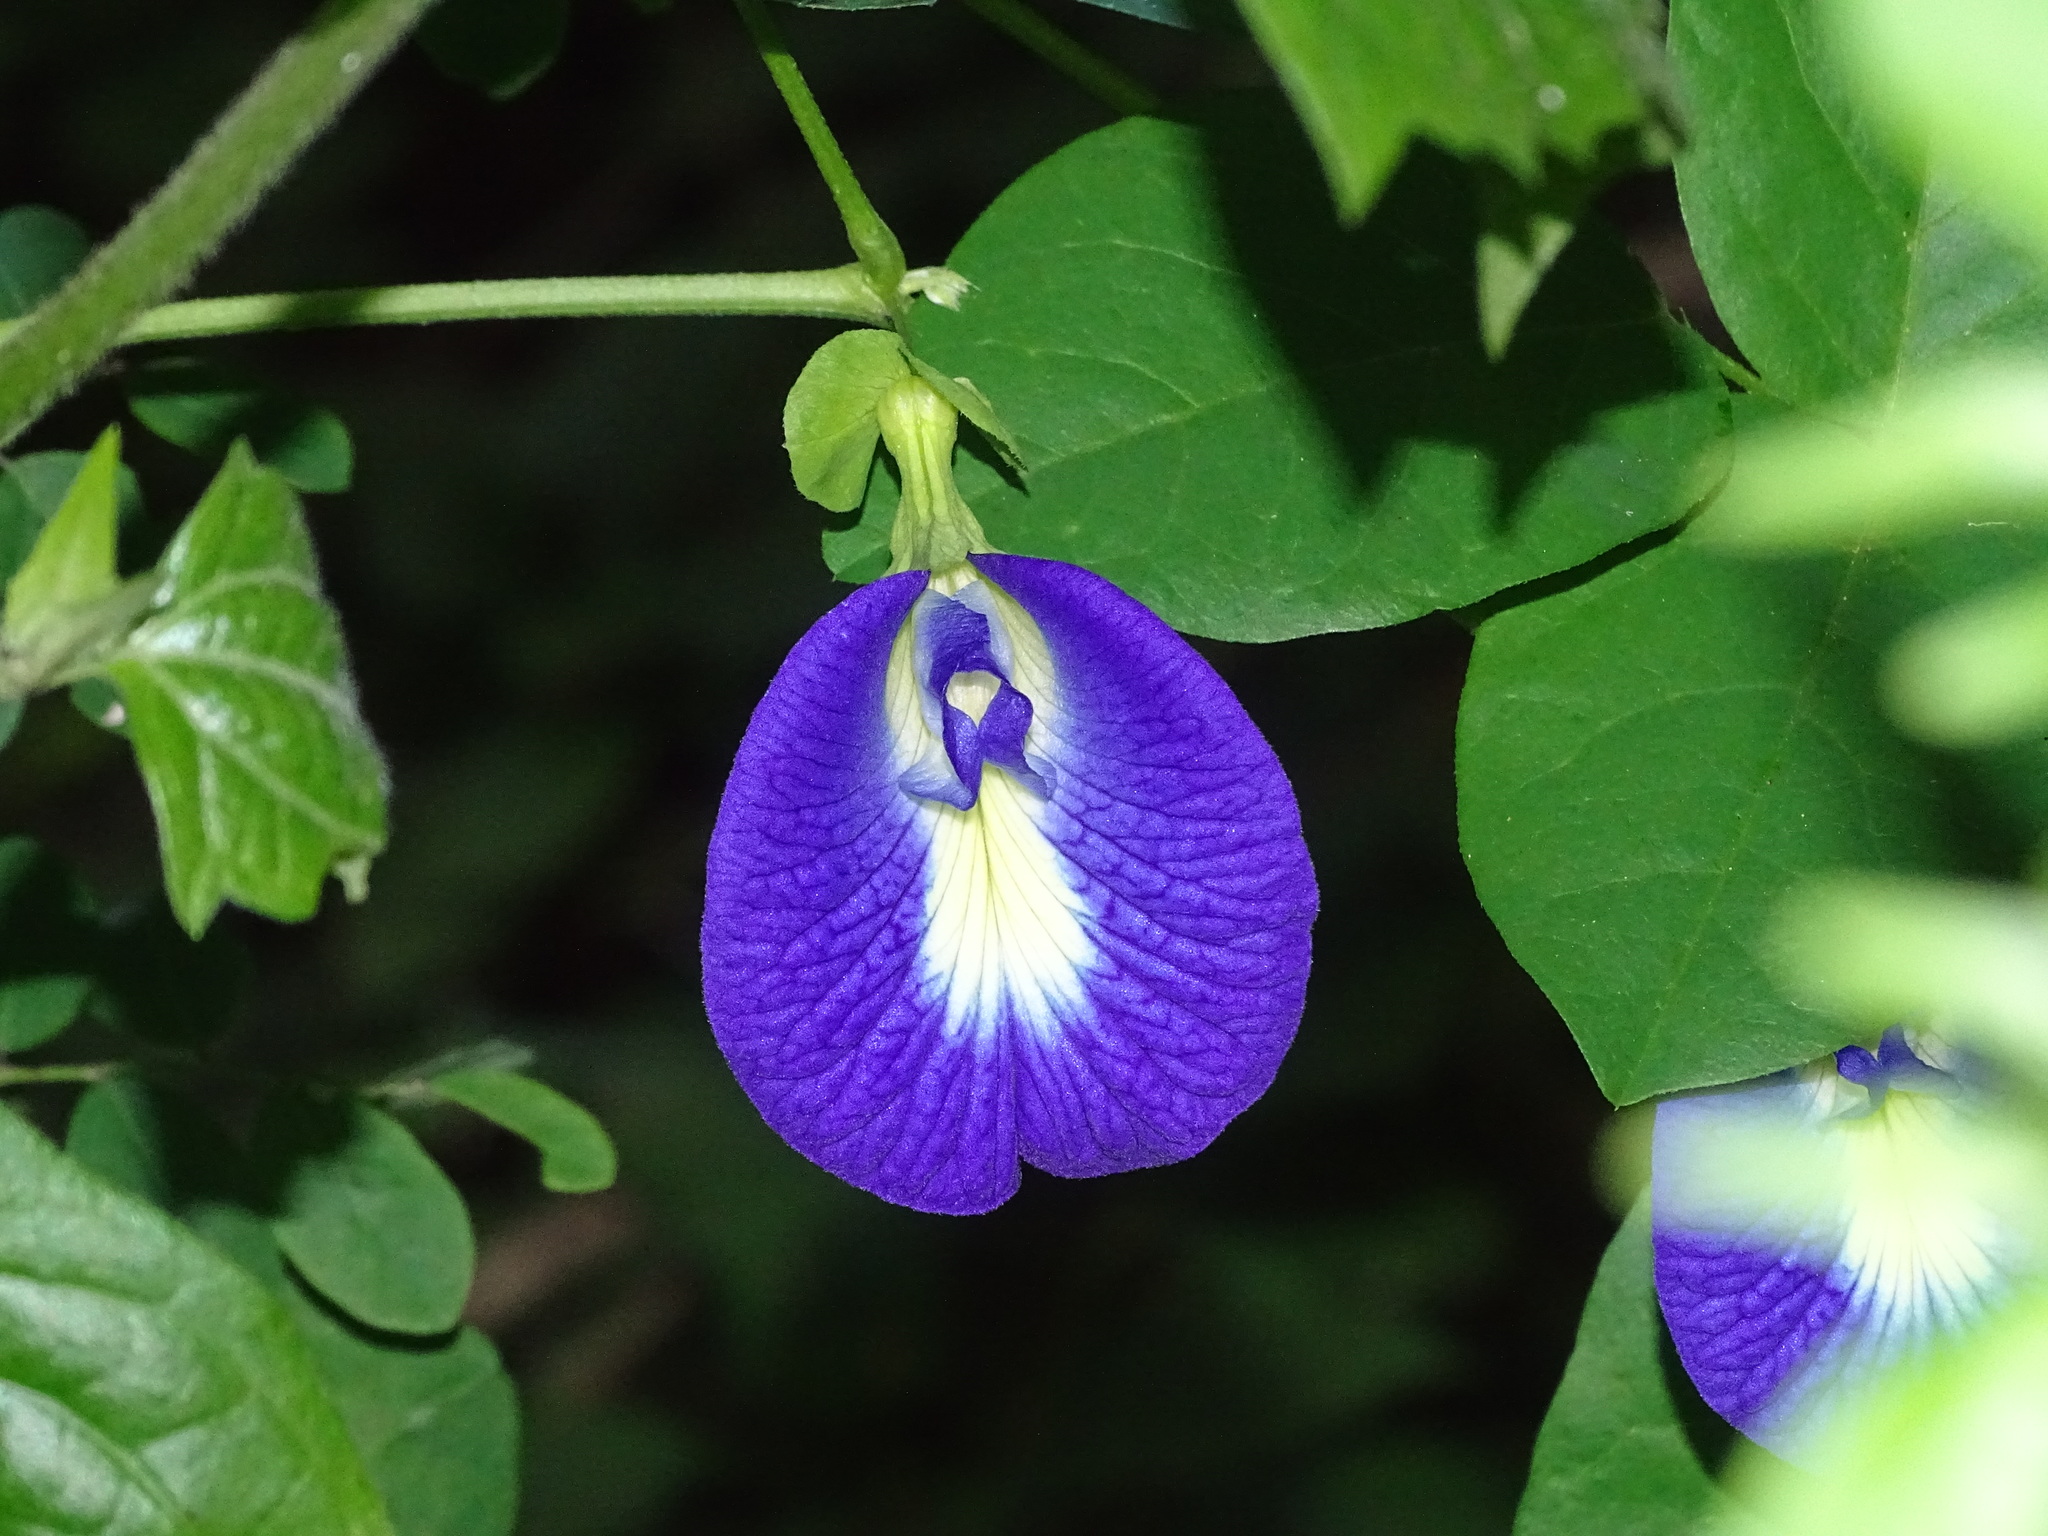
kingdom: Plantae
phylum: Tracheophyta
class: Magnoliopsida
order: Fabales
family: Fabaceae
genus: Clitoria
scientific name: Clitoria ternatea
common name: Asian pigeonwings
